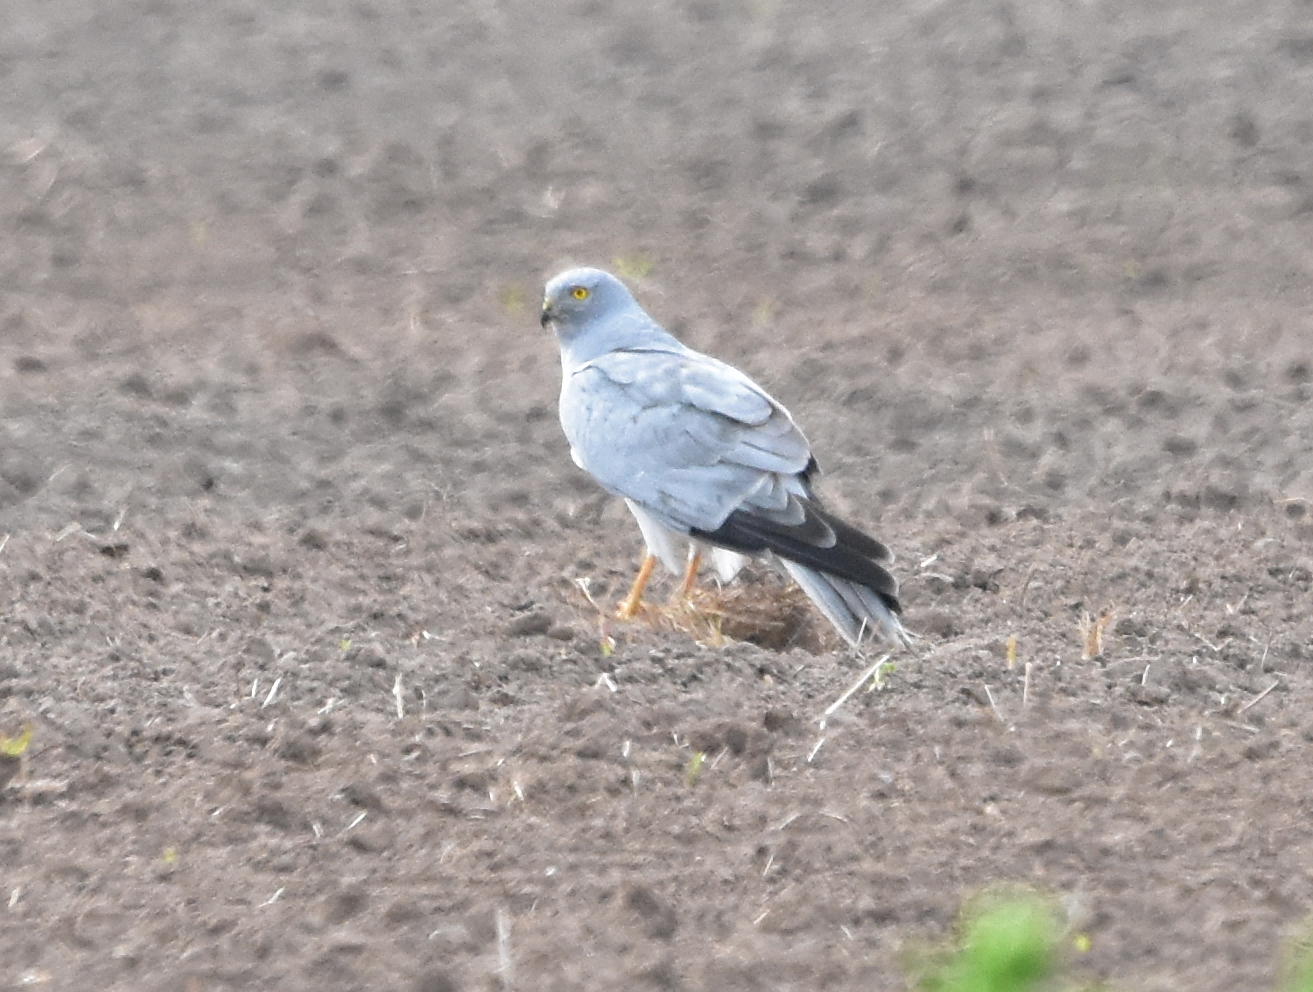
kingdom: Animalia
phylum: Chordata
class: Aves
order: Accipitriformes
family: Accipitridae
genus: Circus
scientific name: Circus cyaneus
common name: Hen harrier
